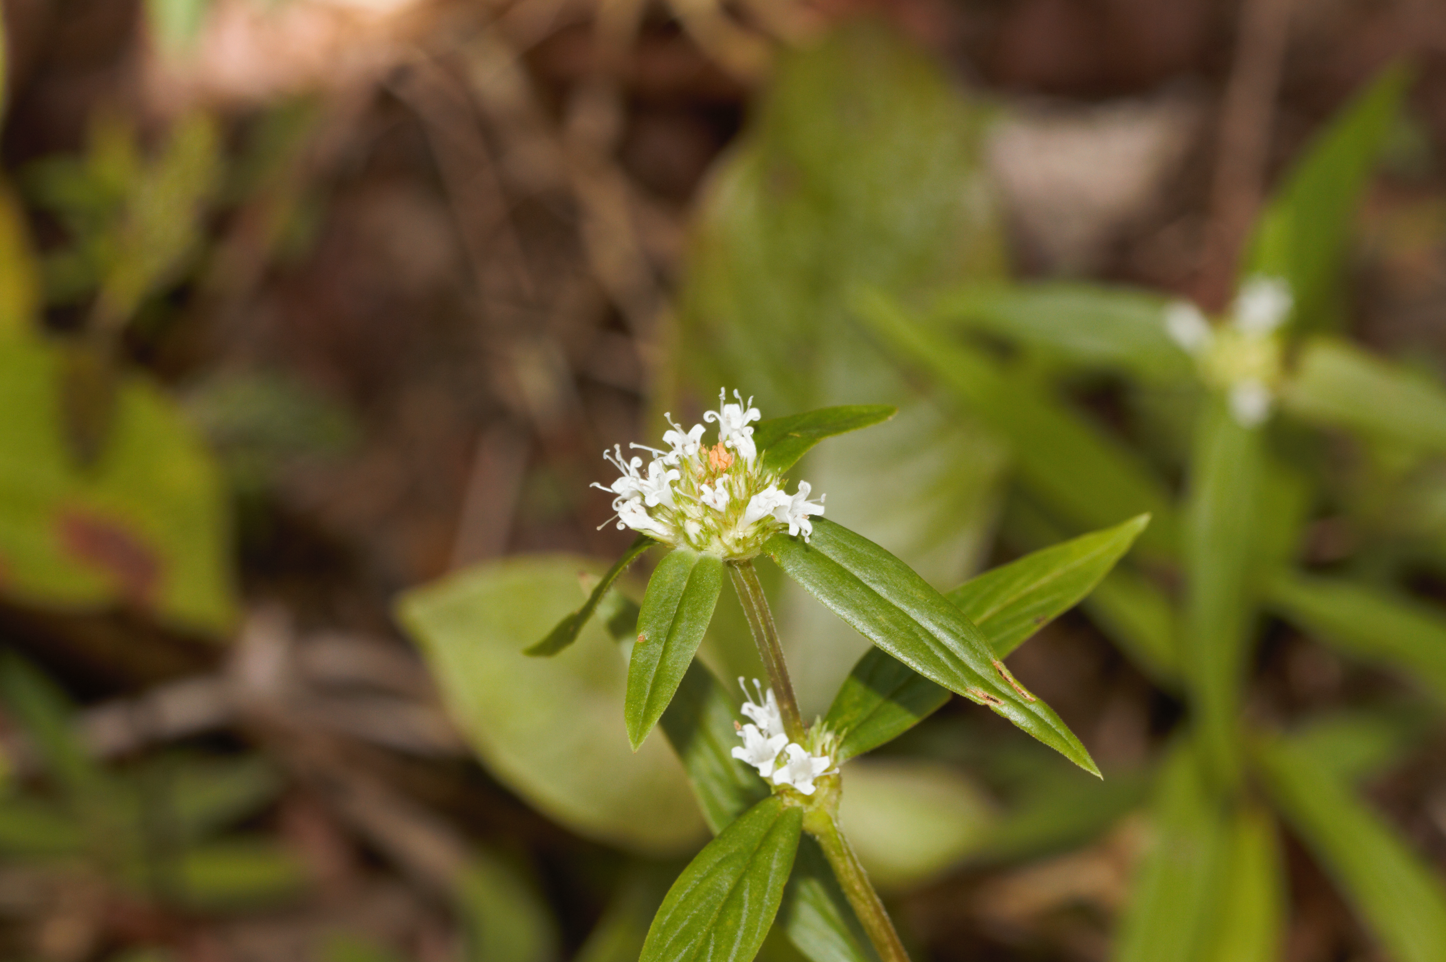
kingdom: Plantae
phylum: Tracheophyta
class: Magnoliopsida
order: Gentianales
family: Rubiaceae
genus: Spermacoce
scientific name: Spermacoce capitata
